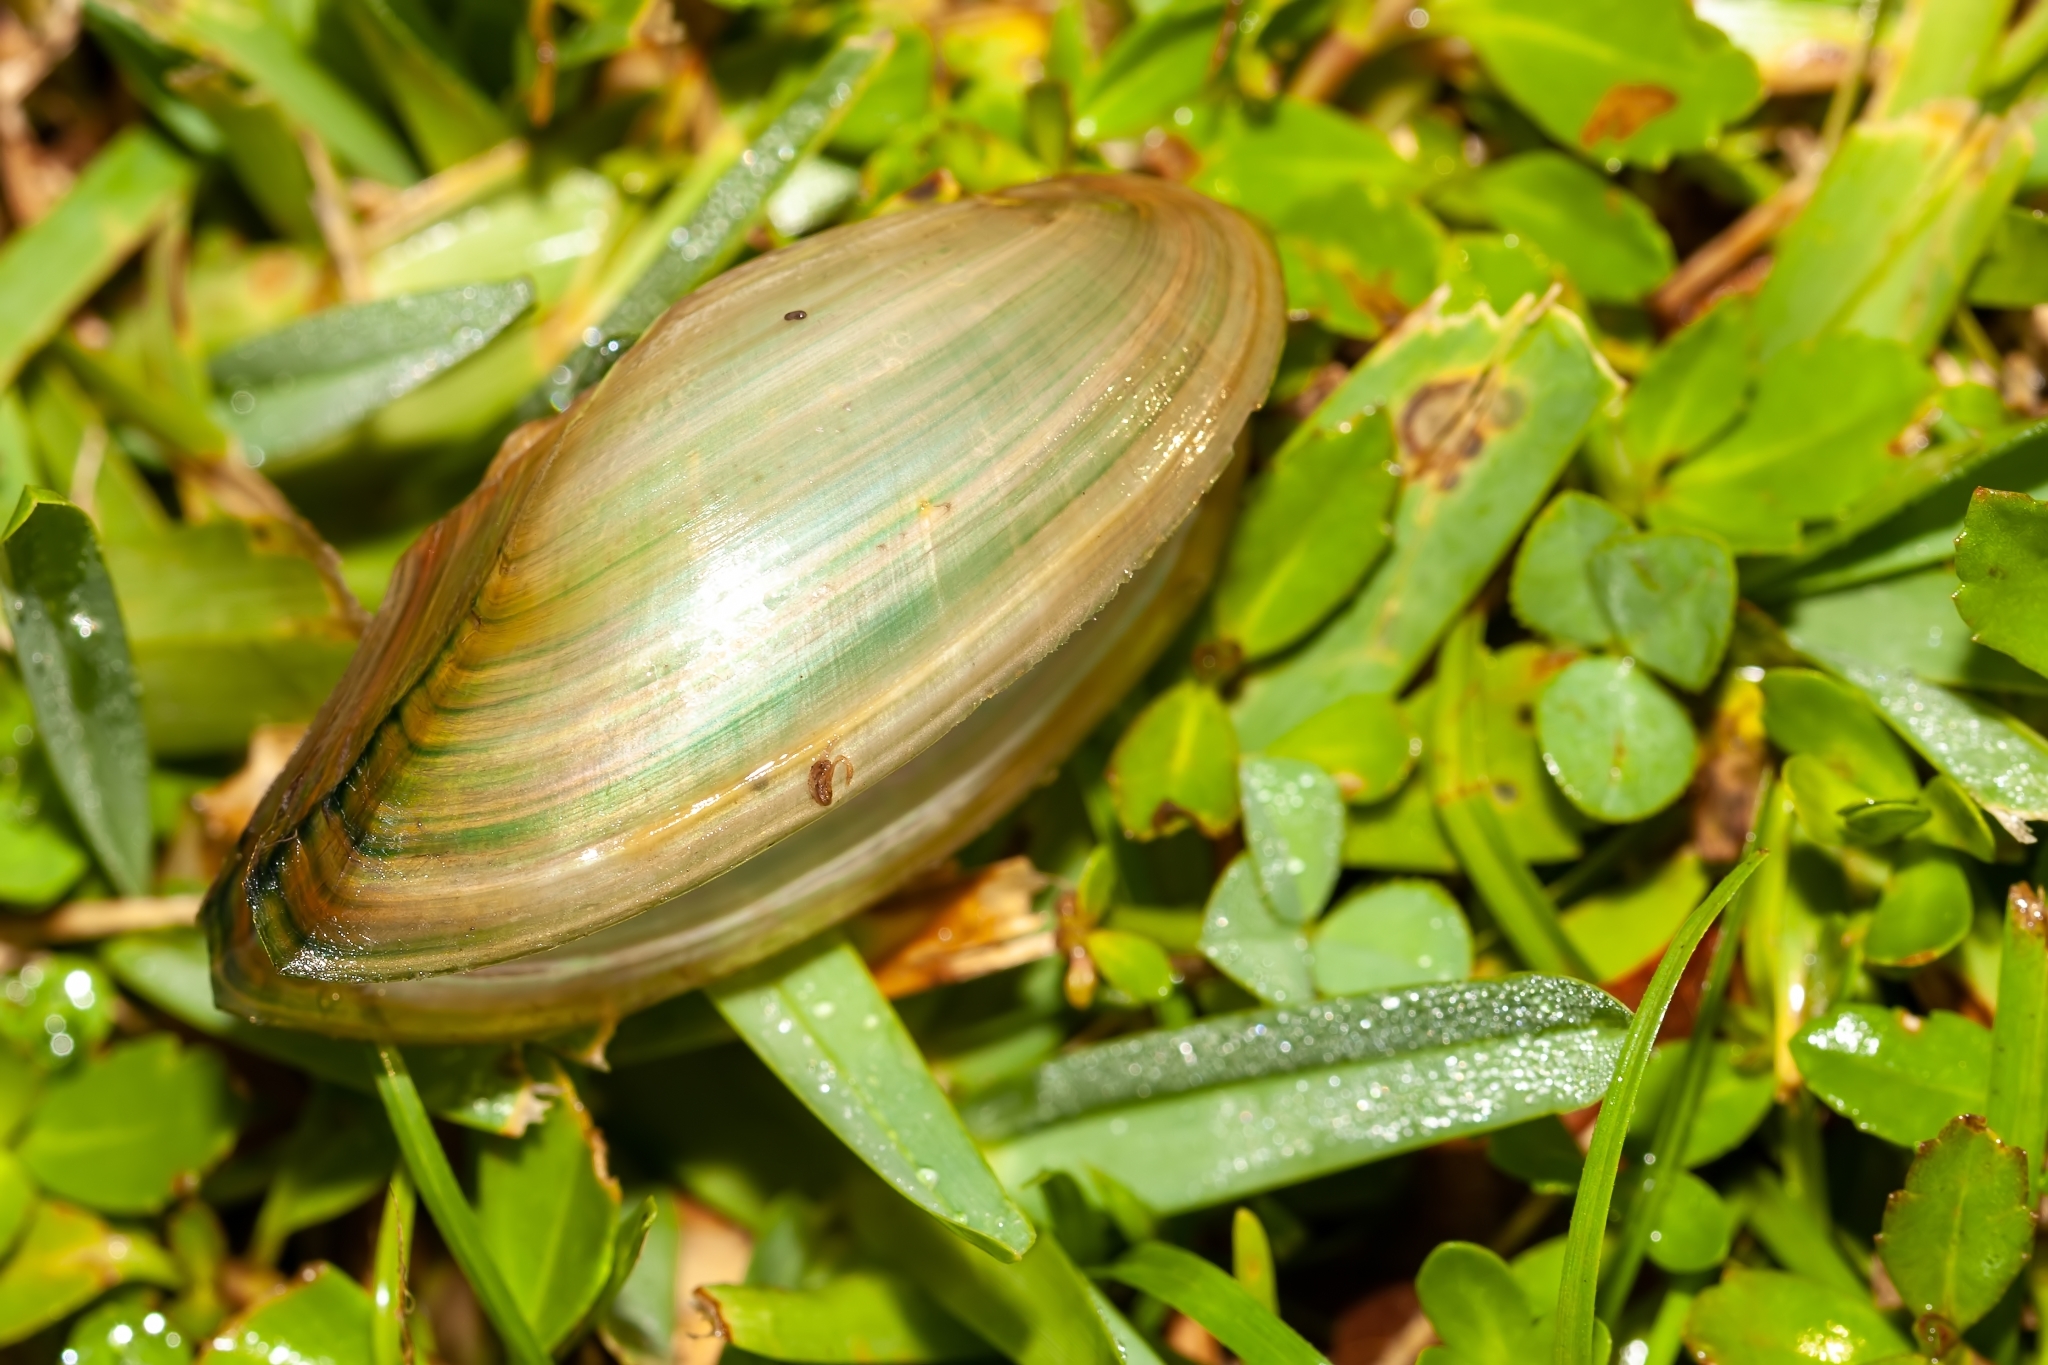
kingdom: Animalia
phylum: Mollusca
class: Bivalvia
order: Unionida
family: Unionidae
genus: Utterbackia
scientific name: Utterbackia imbecillis
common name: Paper pondshell
